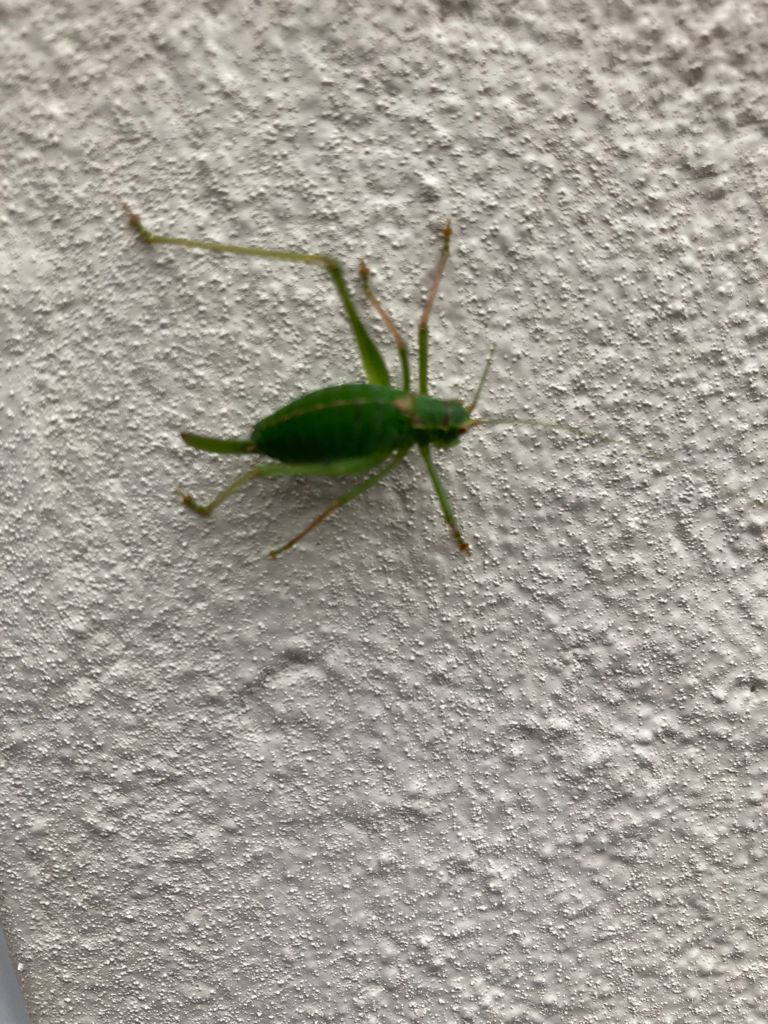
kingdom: Animalia
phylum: Arthropoda
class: Insecta
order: Orthoptera
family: Tettigoniidae
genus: Leptophyes
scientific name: Leptophyes punctatissima
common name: Speckled bush-cricket
